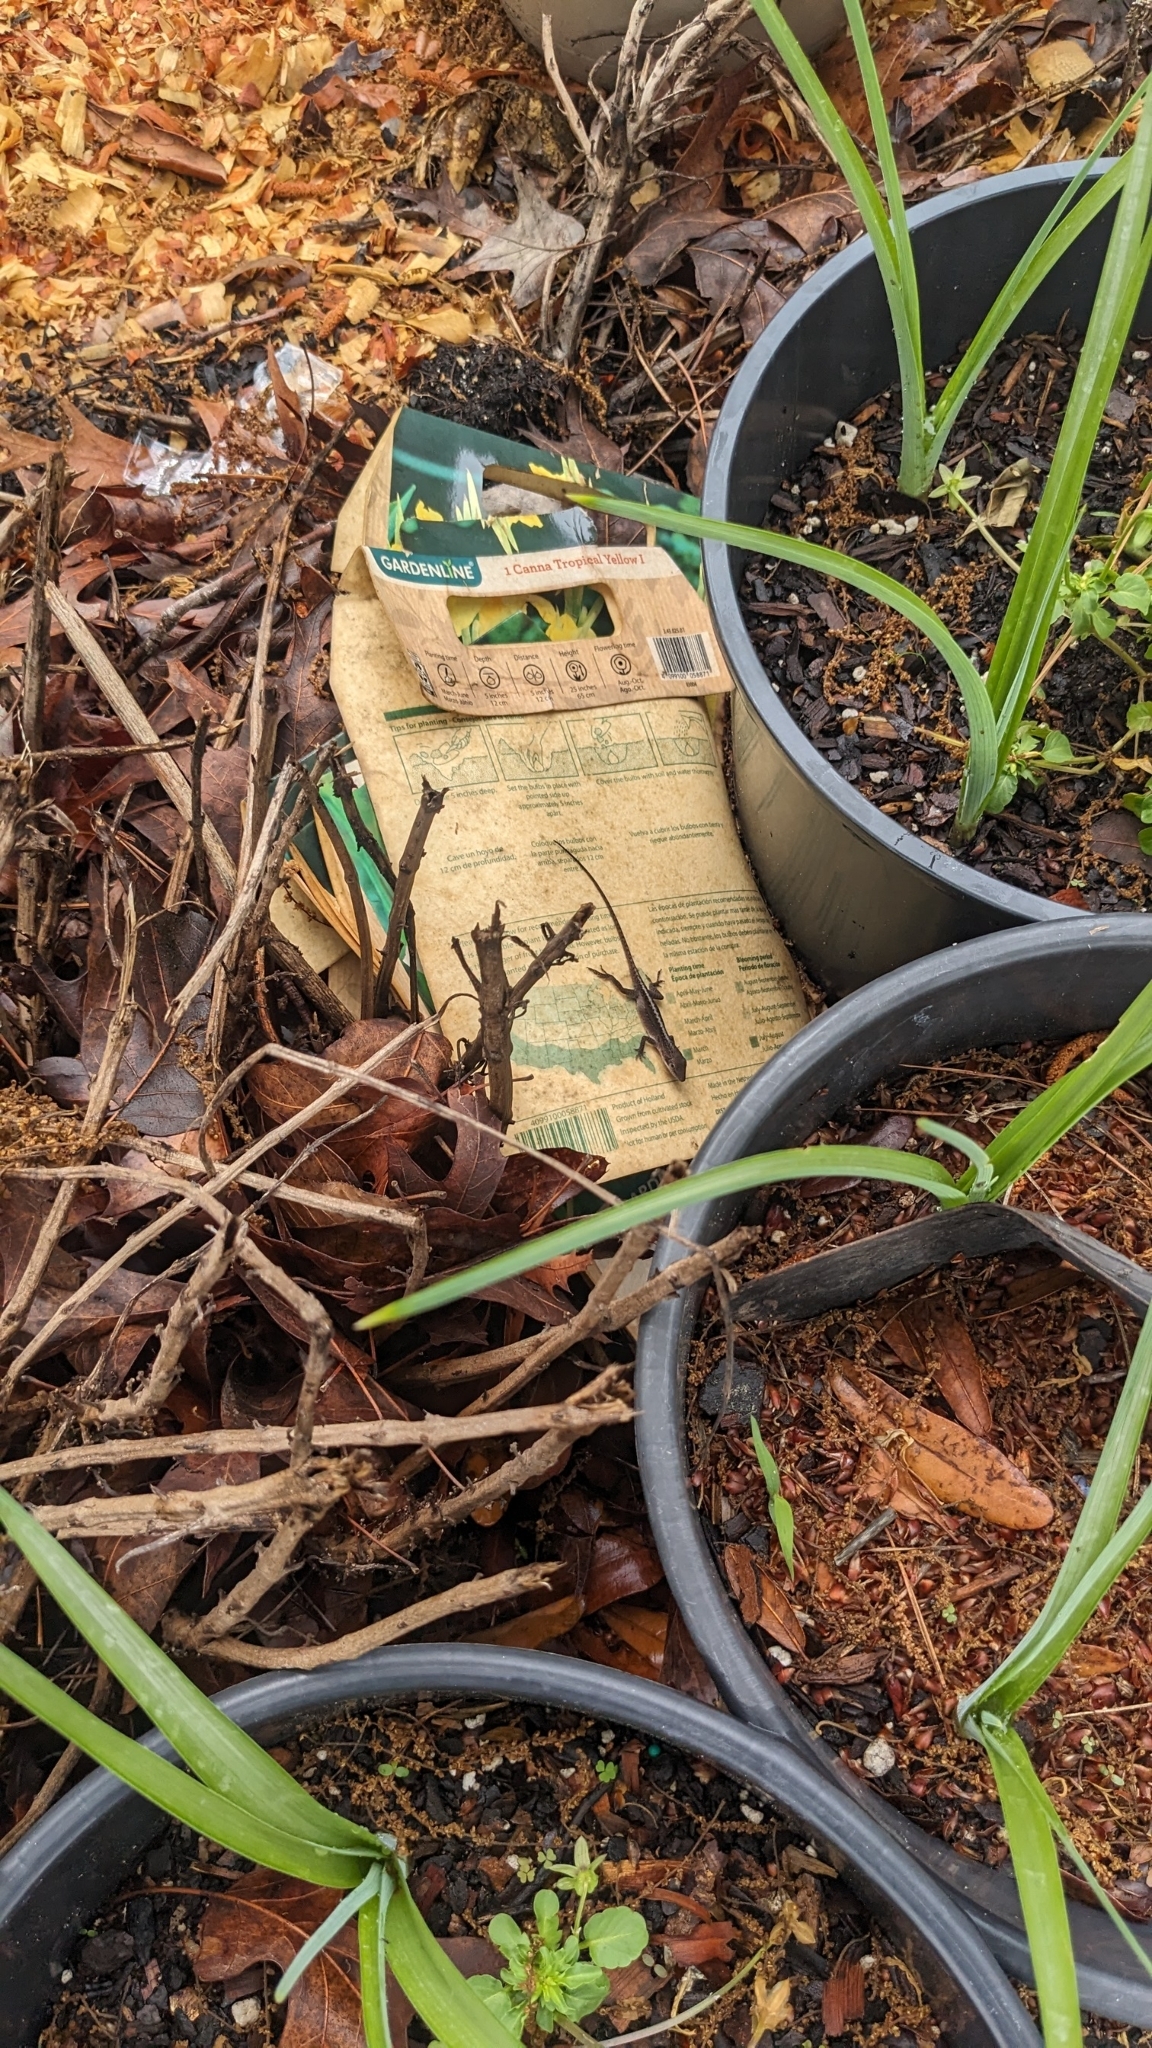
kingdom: Animalia
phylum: Chordata
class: Squamata
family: Dactyloidae
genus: Anolis
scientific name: Anolis carolinensis
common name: Green anole
